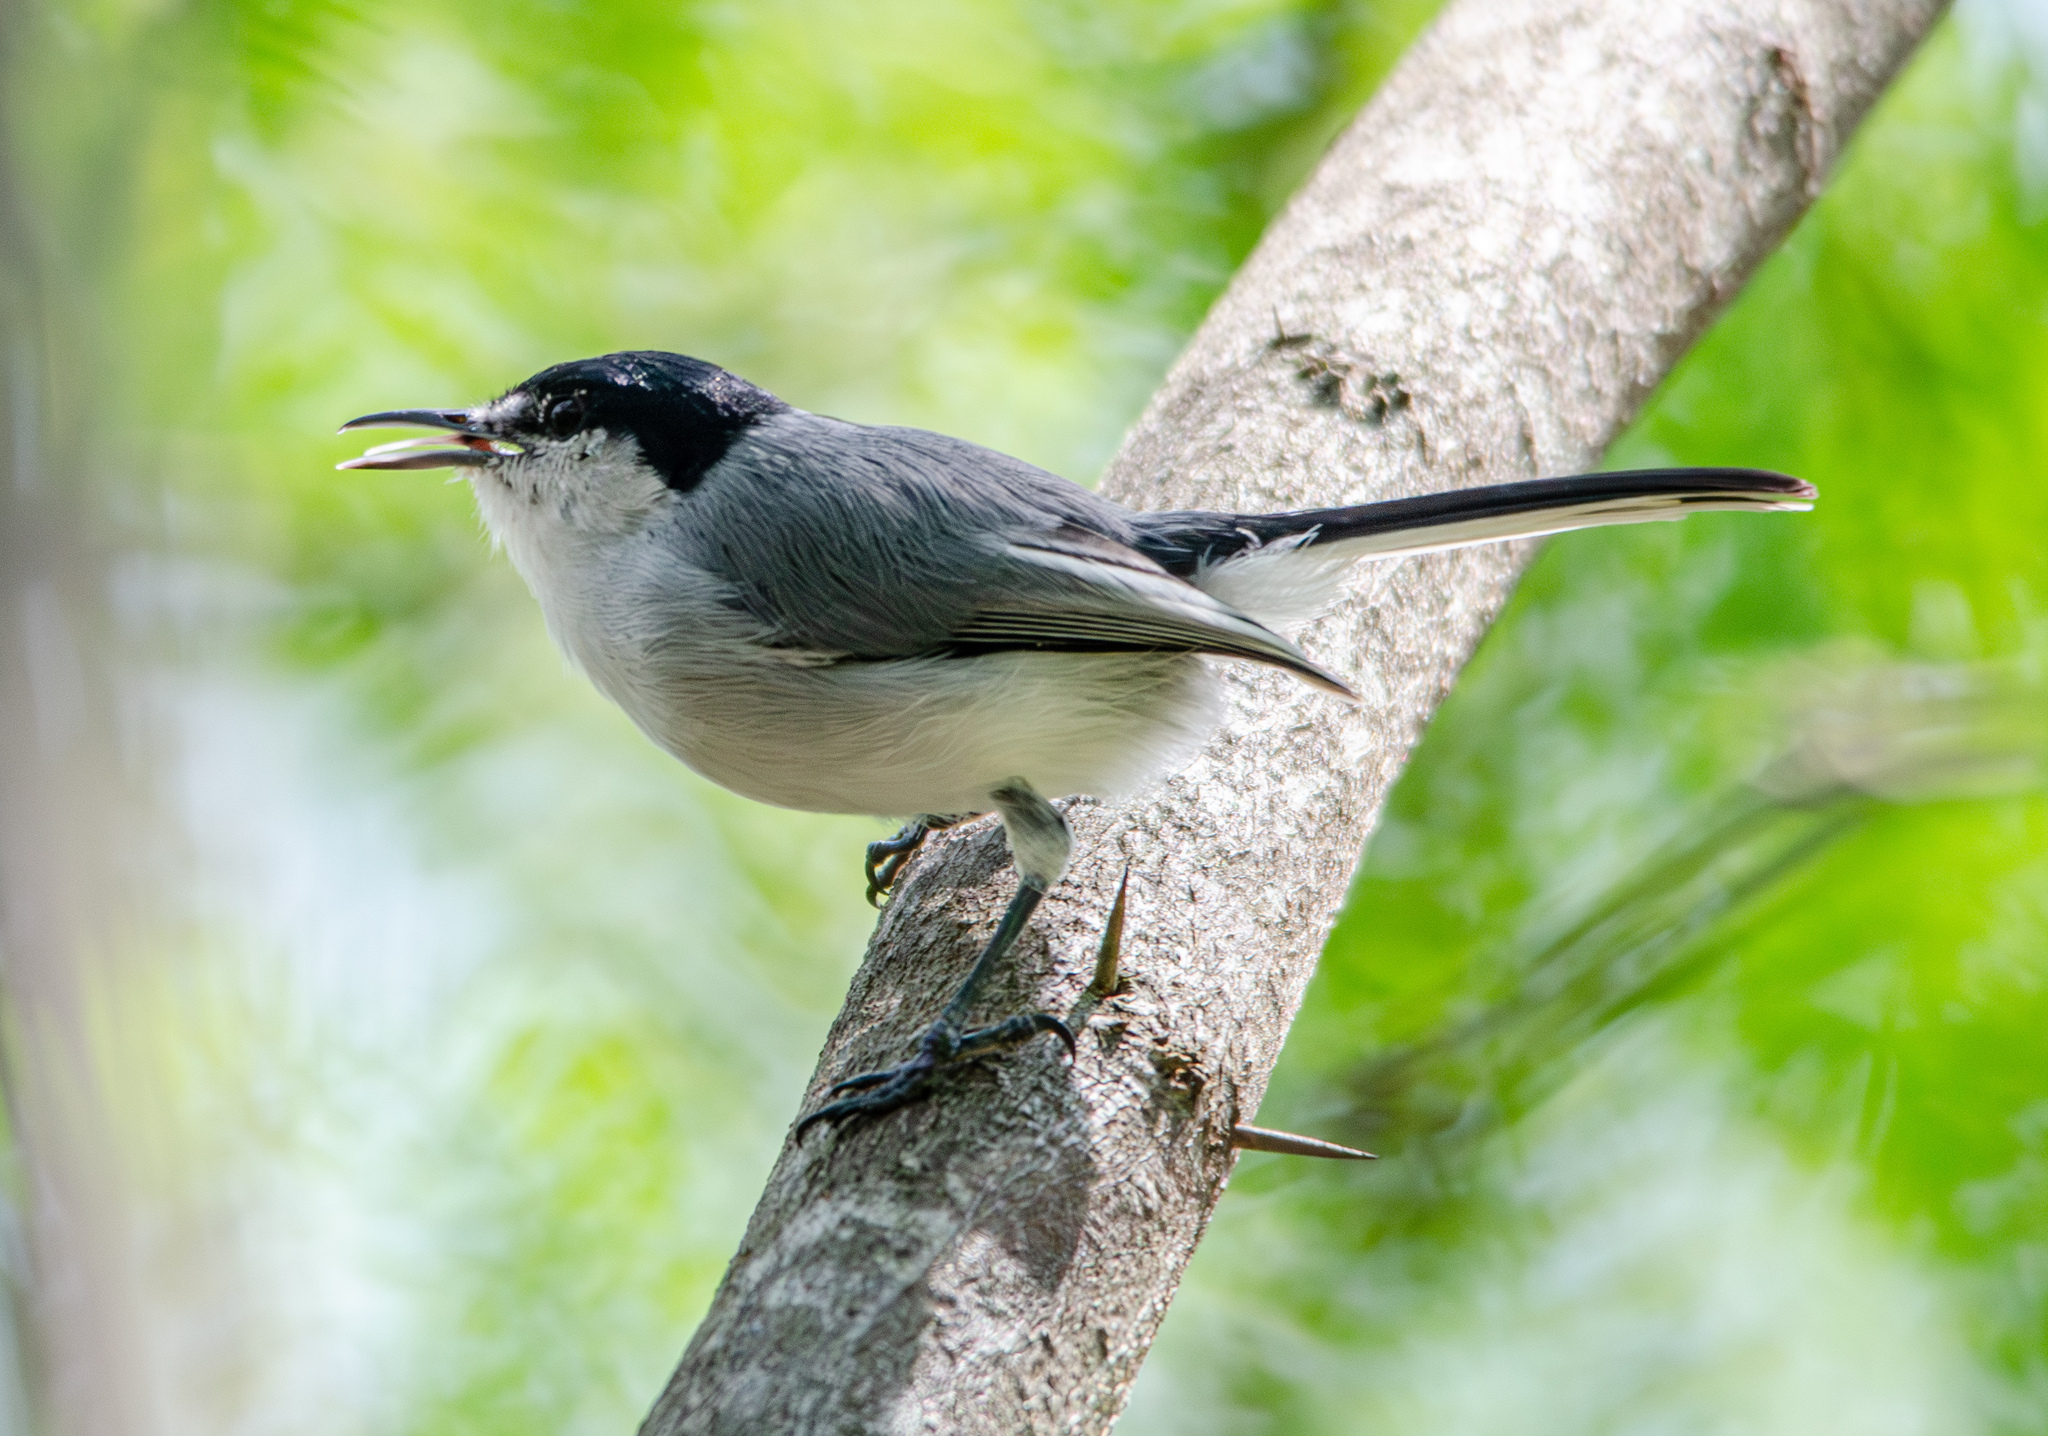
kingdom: Animalia
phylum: Chordata
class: Aves
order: Passeriformes
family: Polioptilidae
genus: Polioptila
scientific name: Polioptila albiloris
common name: White-lored gnatcatcher
